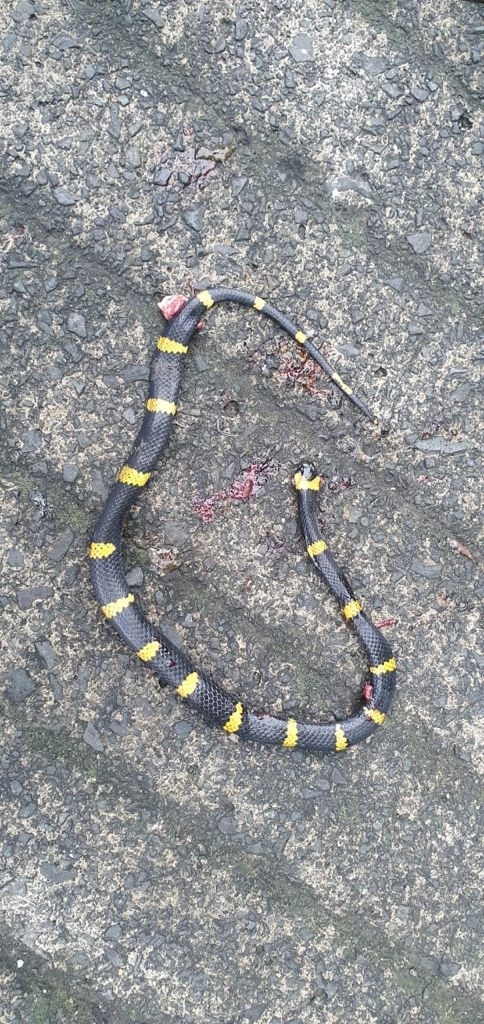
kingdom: Animalia
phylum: Chordata
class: Squamata
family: Colubridae
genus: Geophis
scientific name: Geophis
